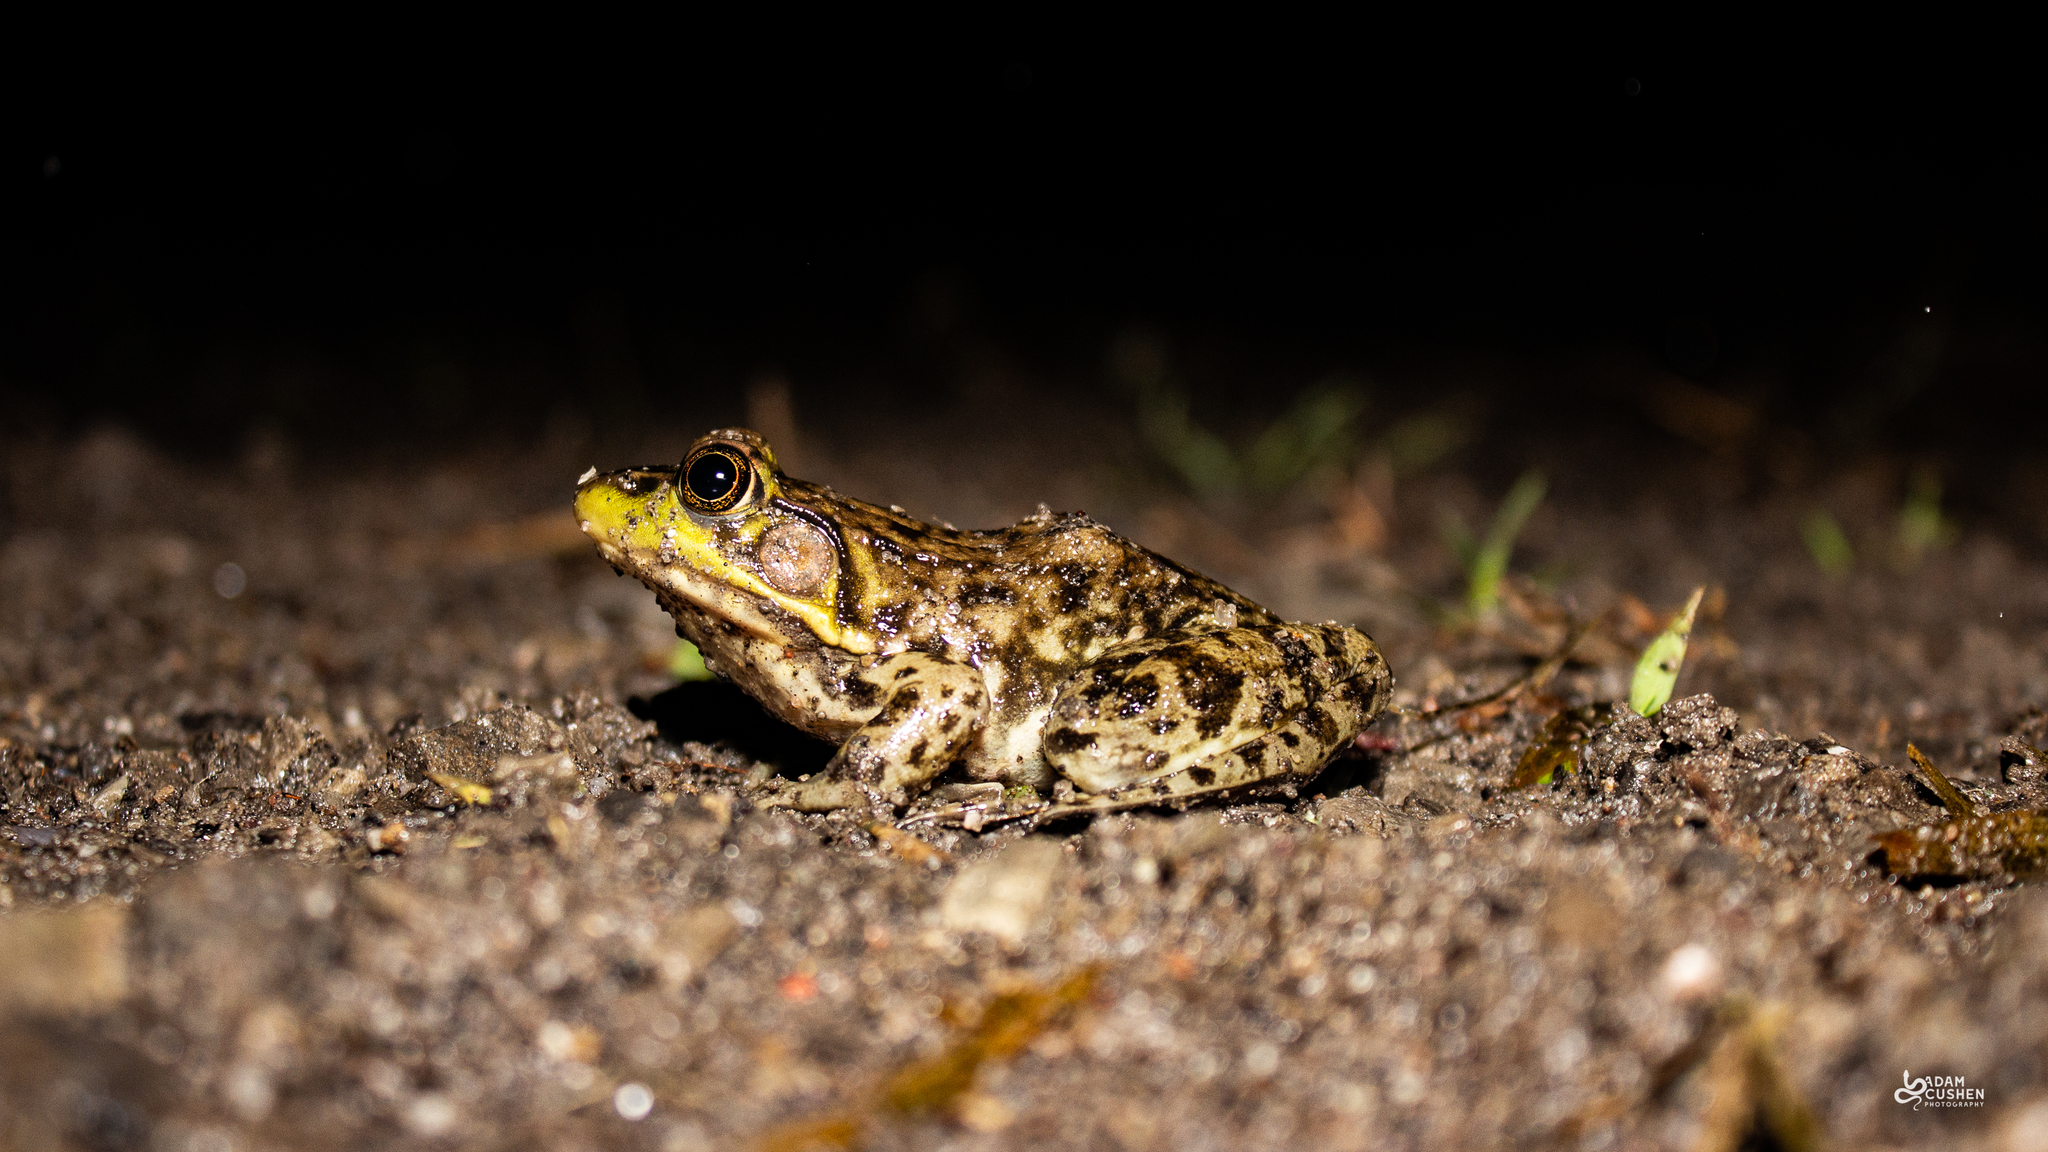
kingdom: Animalia
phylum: Chordata
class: Amphibia
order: Anura
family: Ranidae
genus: Lithobates
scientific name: Lithobates clamitans
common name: Green frog
